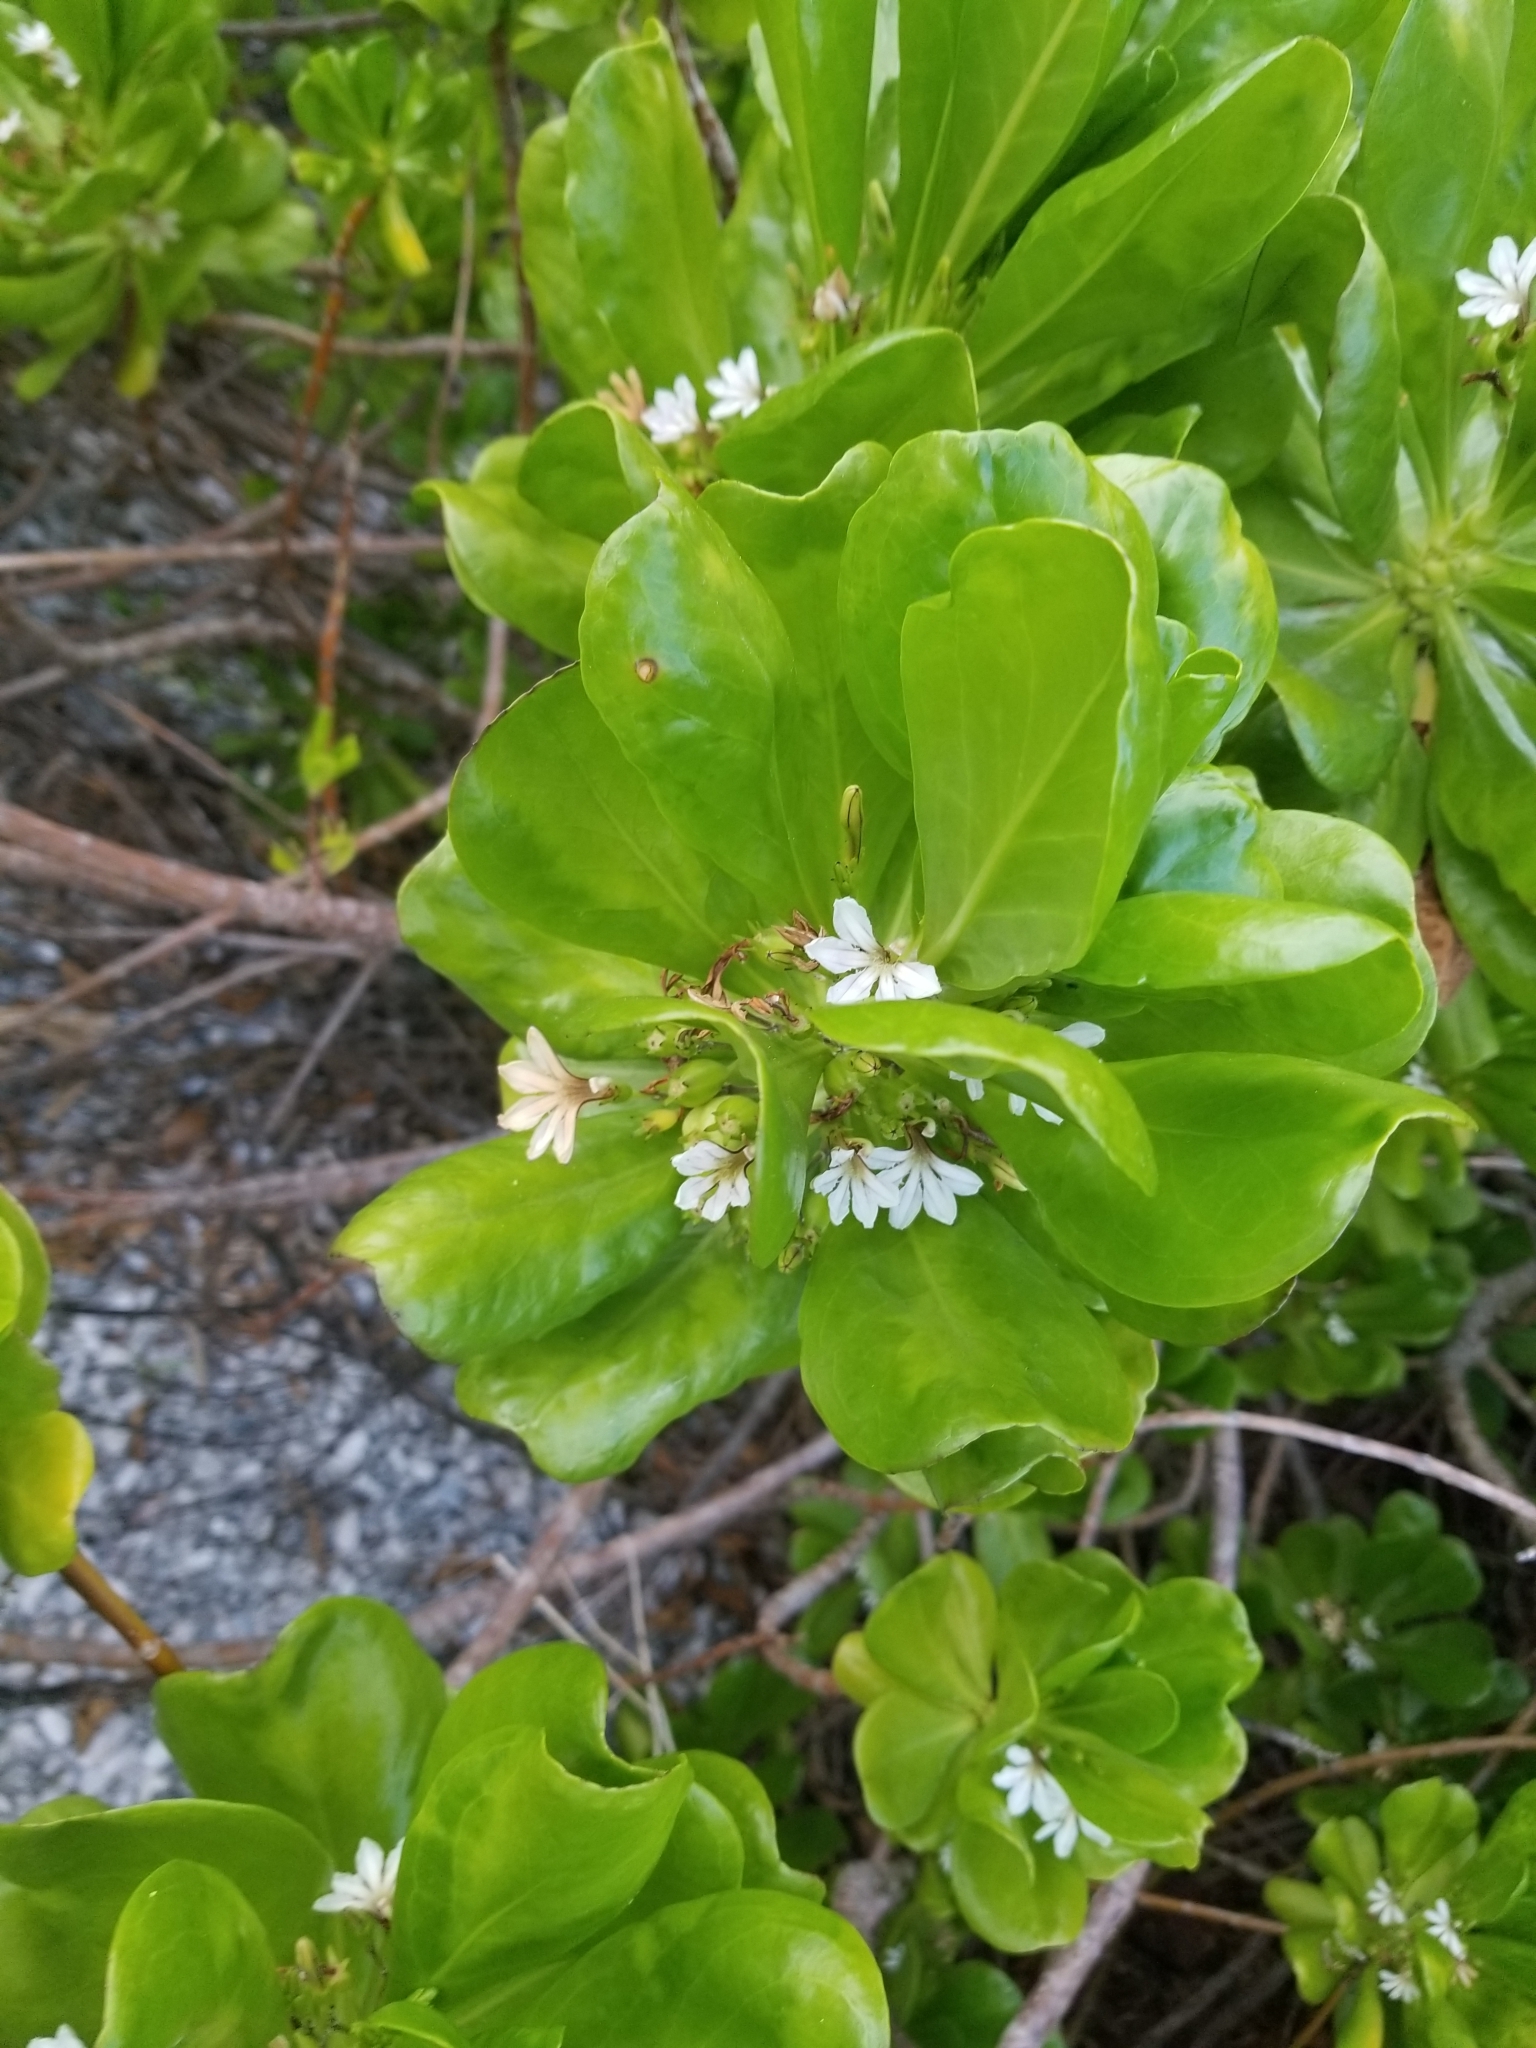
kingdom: Plantae
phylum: Tracheophyta
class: Magnoliopsida
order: Asterales
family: Goodeniaceae
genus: Scaevola
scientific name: Scaevola taccada
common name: Sea lettucetree
